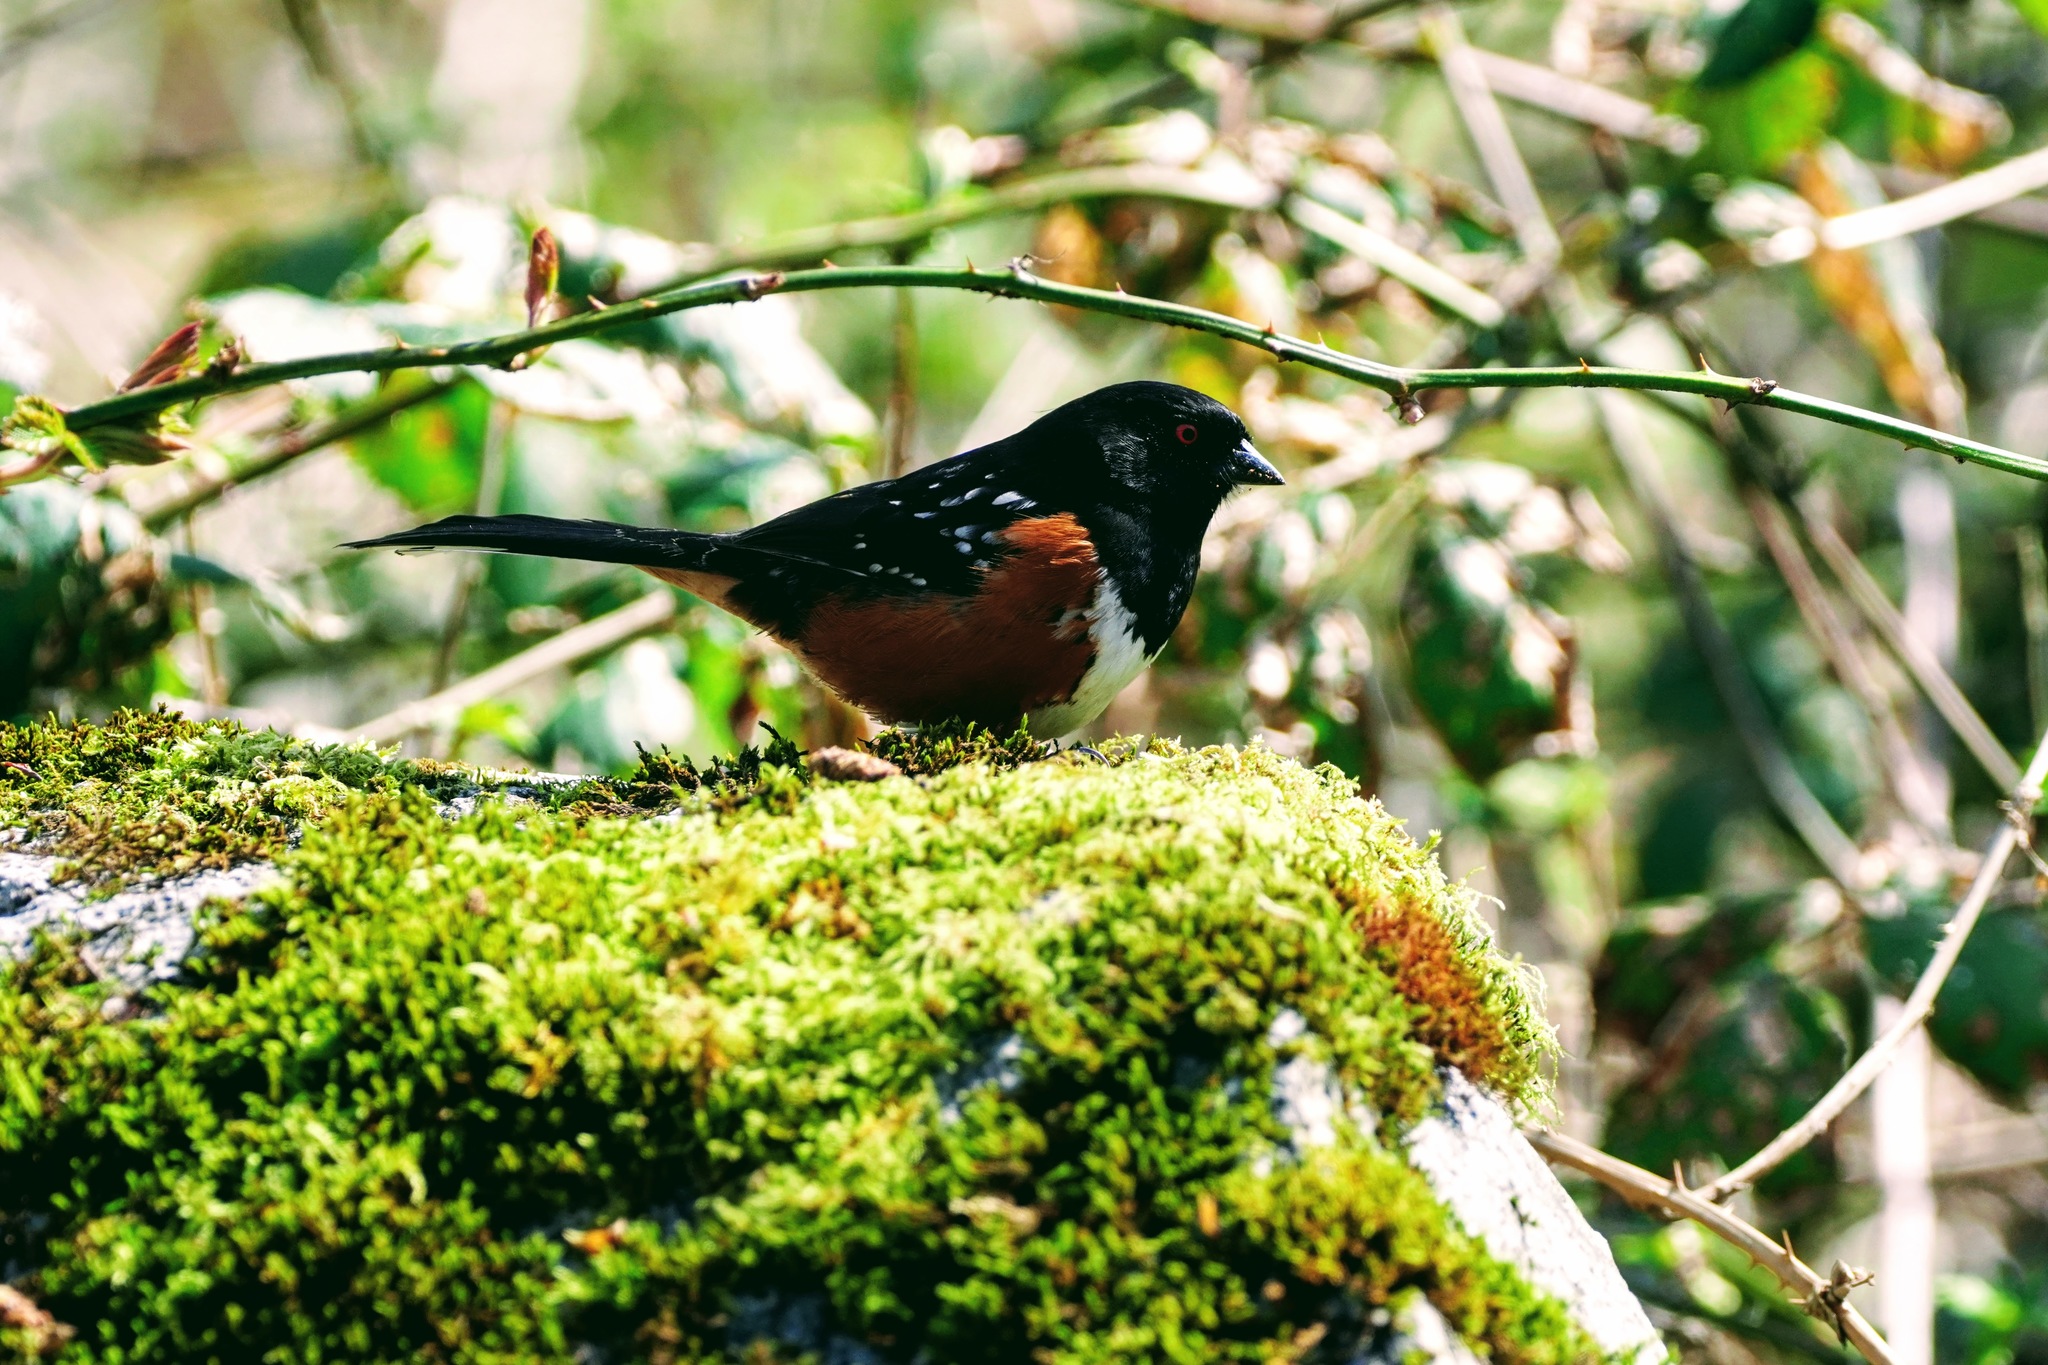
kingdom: Animalia
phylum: Chordata
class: Aves
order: Passeriformes
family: Passerellidae
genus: Pipilo
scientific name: Pipilo maculatus
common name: Spotted towhee
